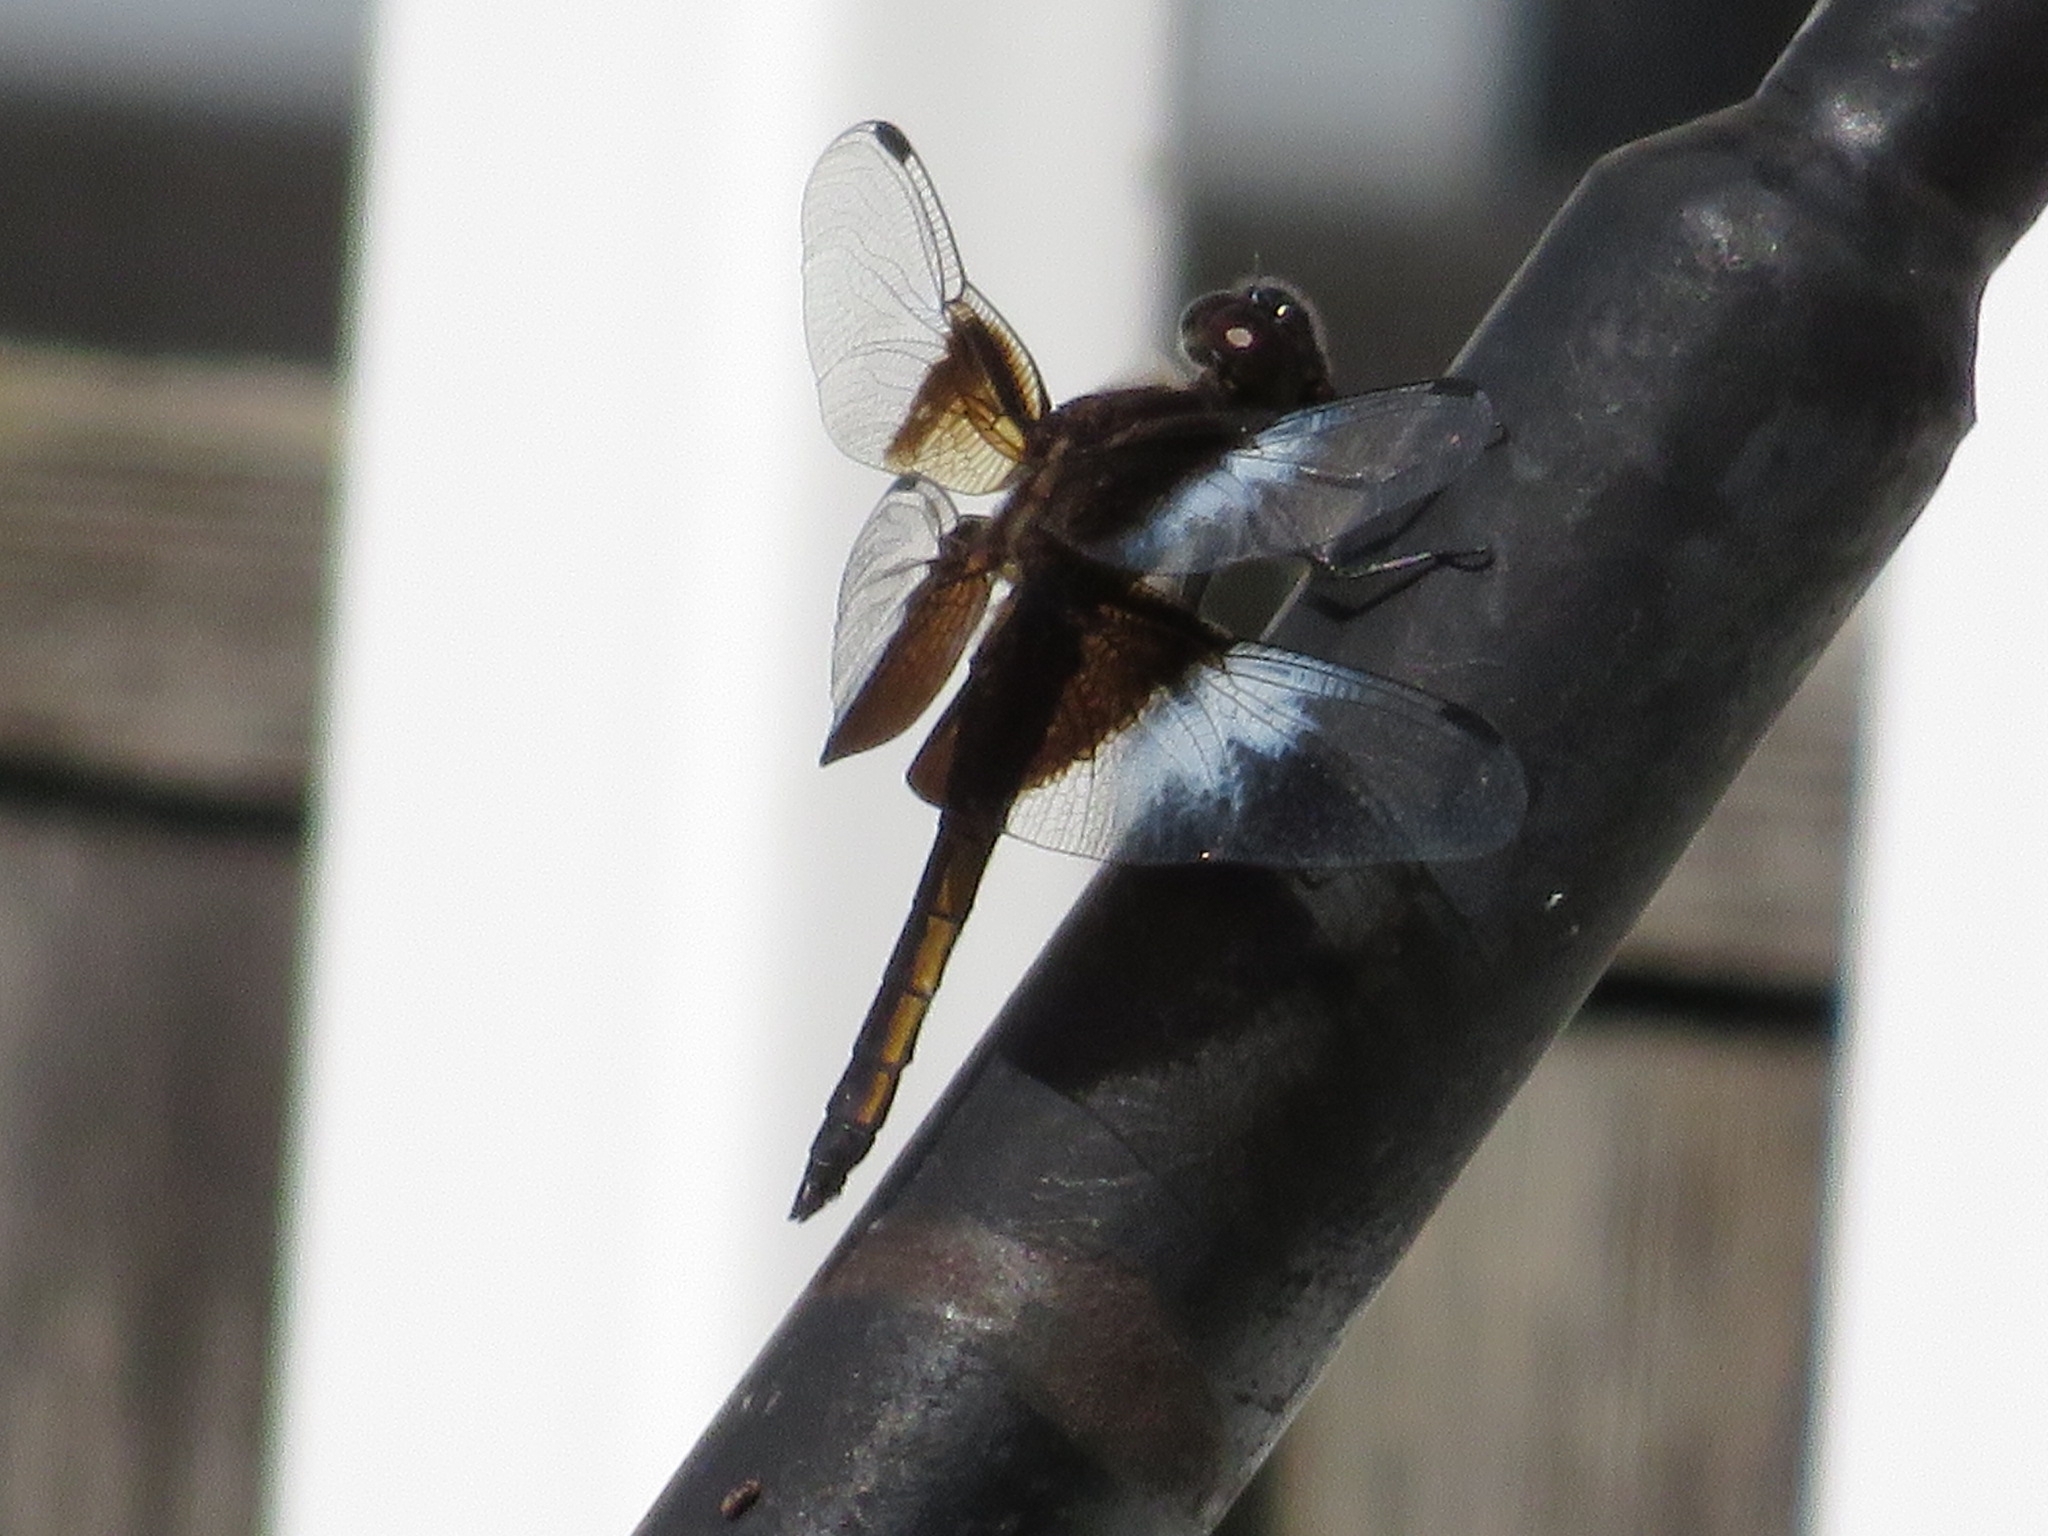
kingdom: Animalia
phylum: Arthropoda
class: Insecta
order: Odonata
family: Libellulidae
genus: Libellula
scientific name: Libellula luctuosa
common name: Widow skimmer
